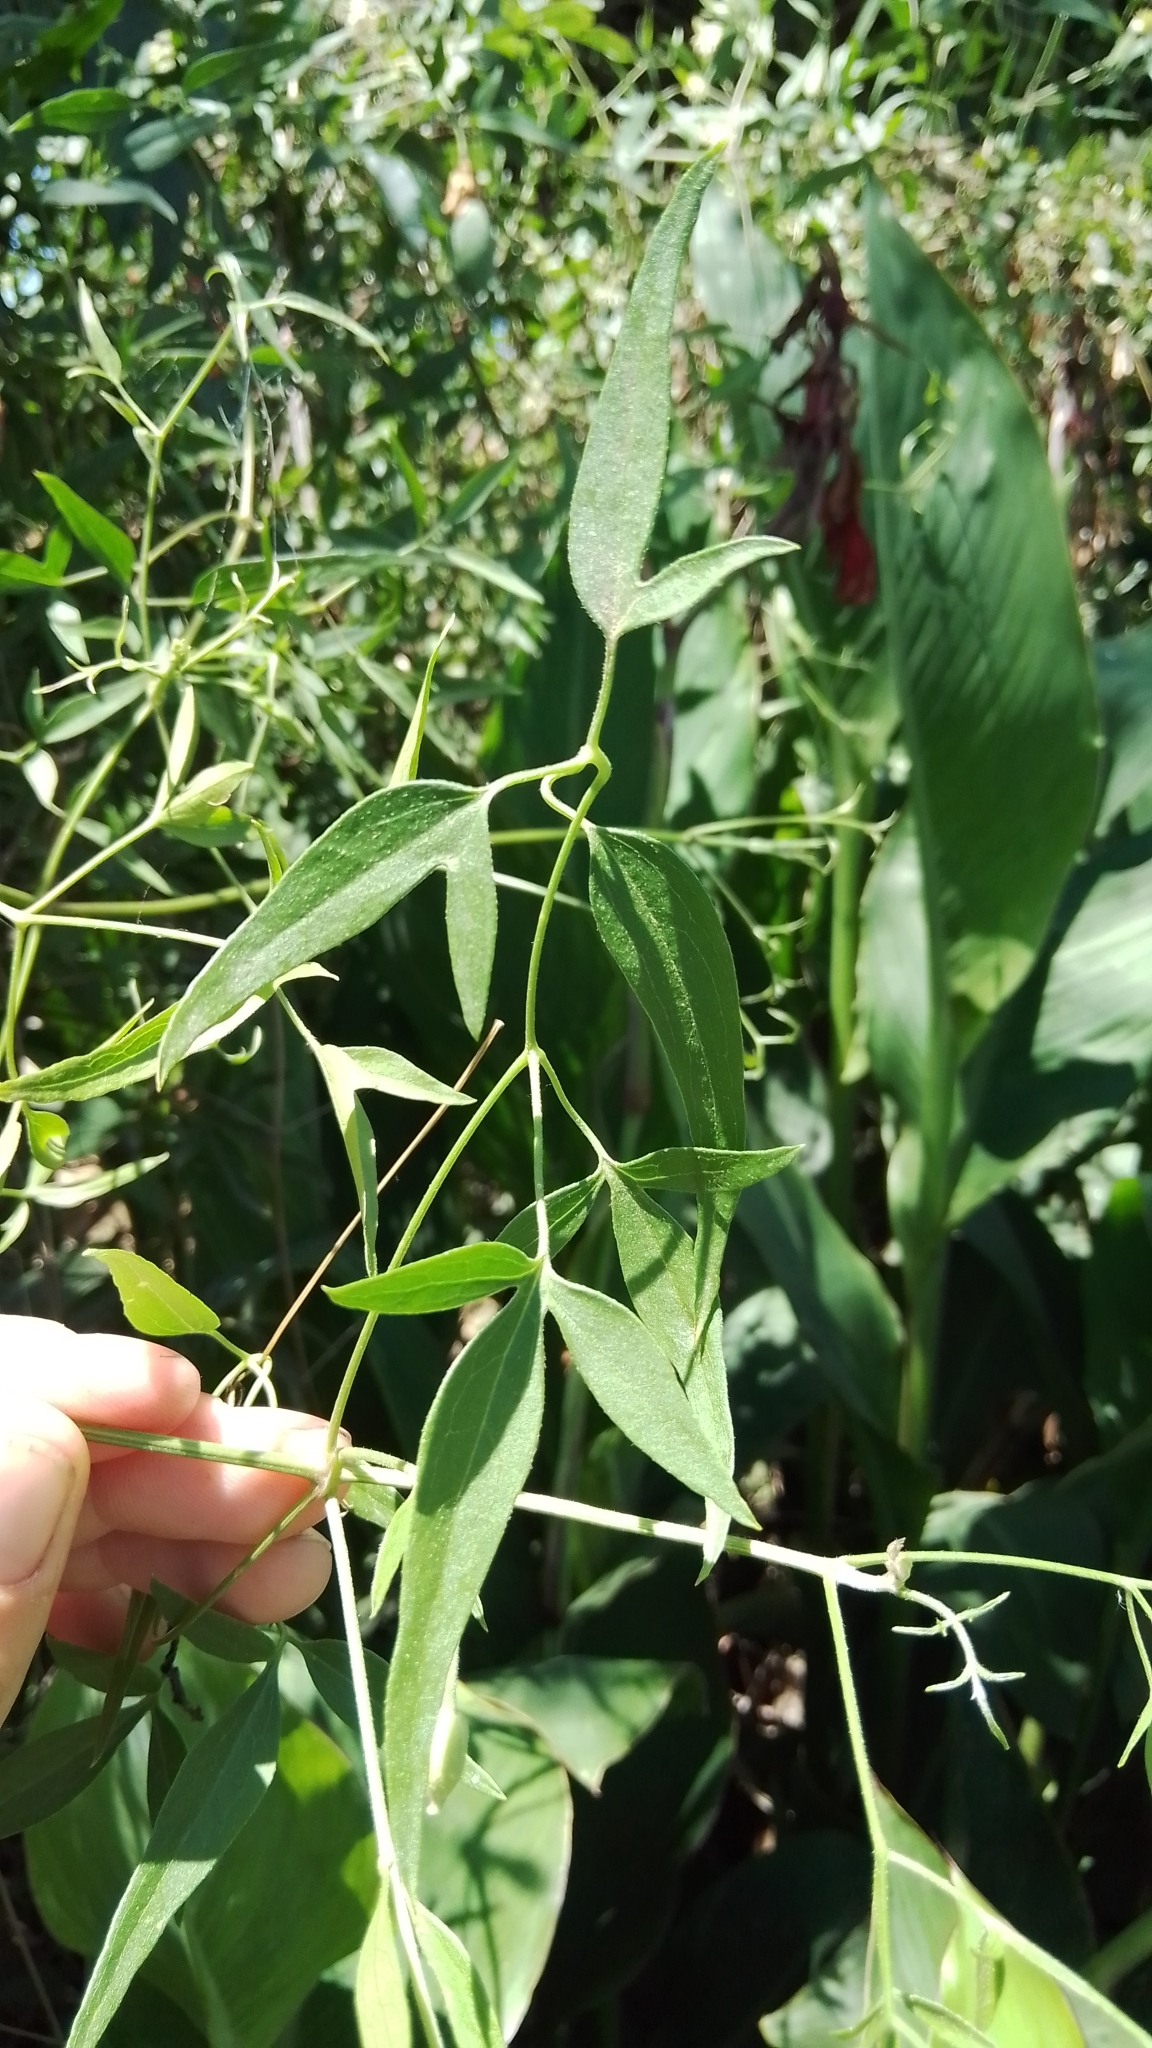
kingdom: Plantae
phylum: Tracheophyta
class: Magnoliopsida
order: Ranunculales
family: Ranunculaceae
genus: Clematis
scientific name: Clematis montevidensis
